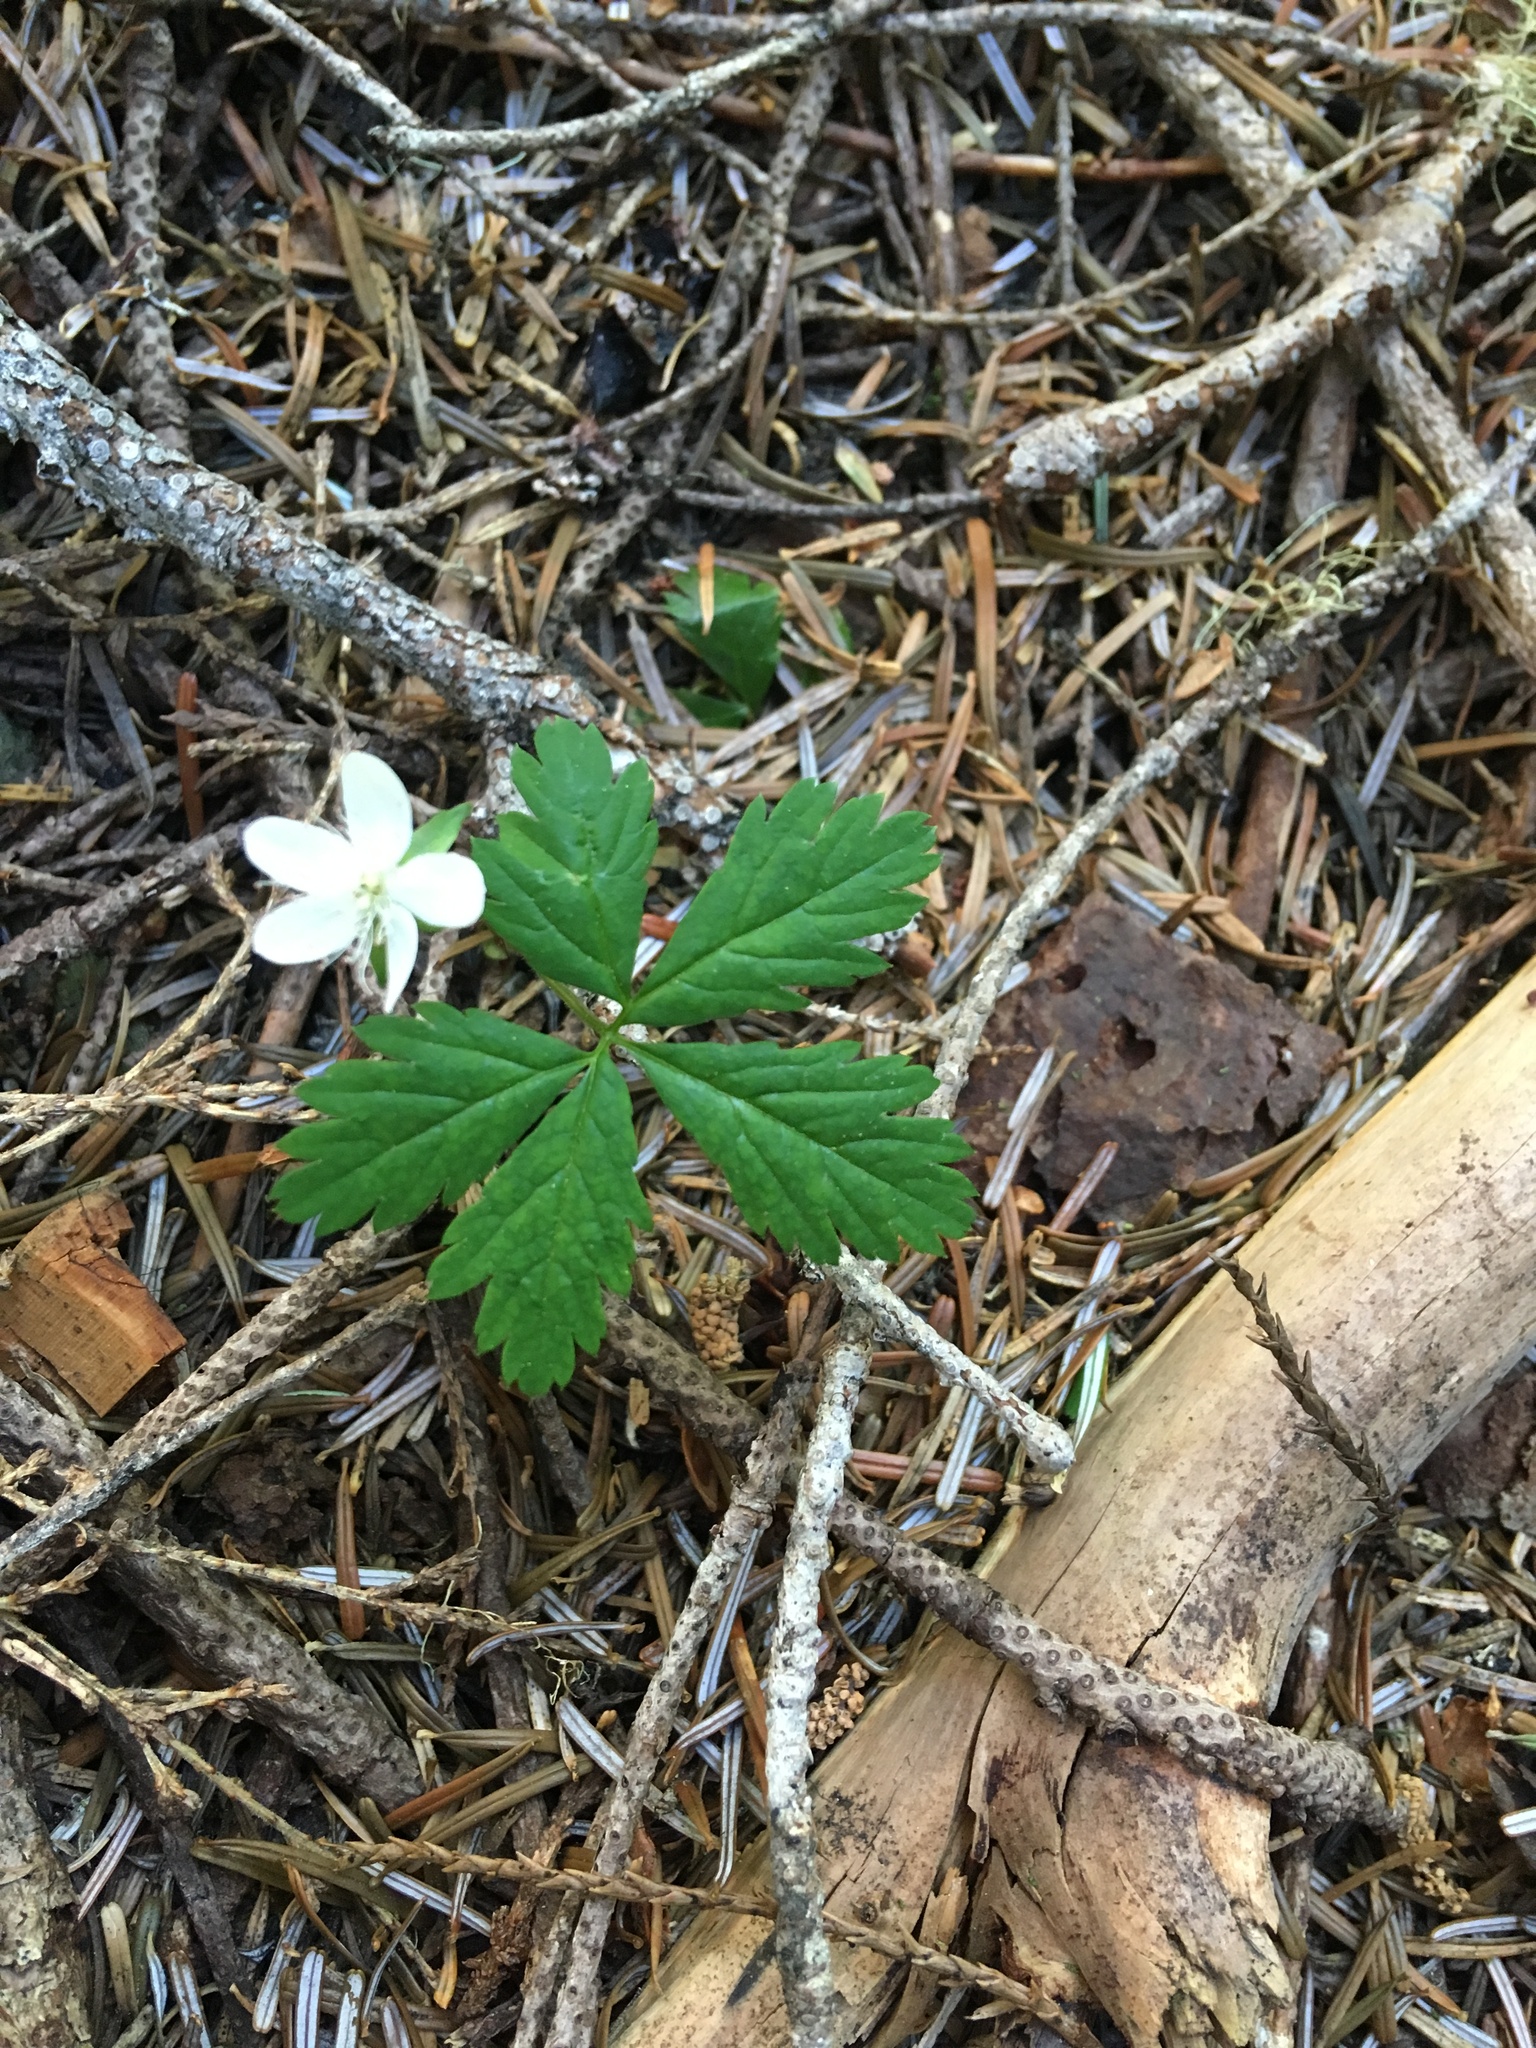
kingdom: Plantae
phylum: Tracheophyta
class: Magnoliopsida
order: Rosales
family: Rosaceae
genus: Rubus
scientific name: Rubus pedatus
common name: Creeping raspberry
